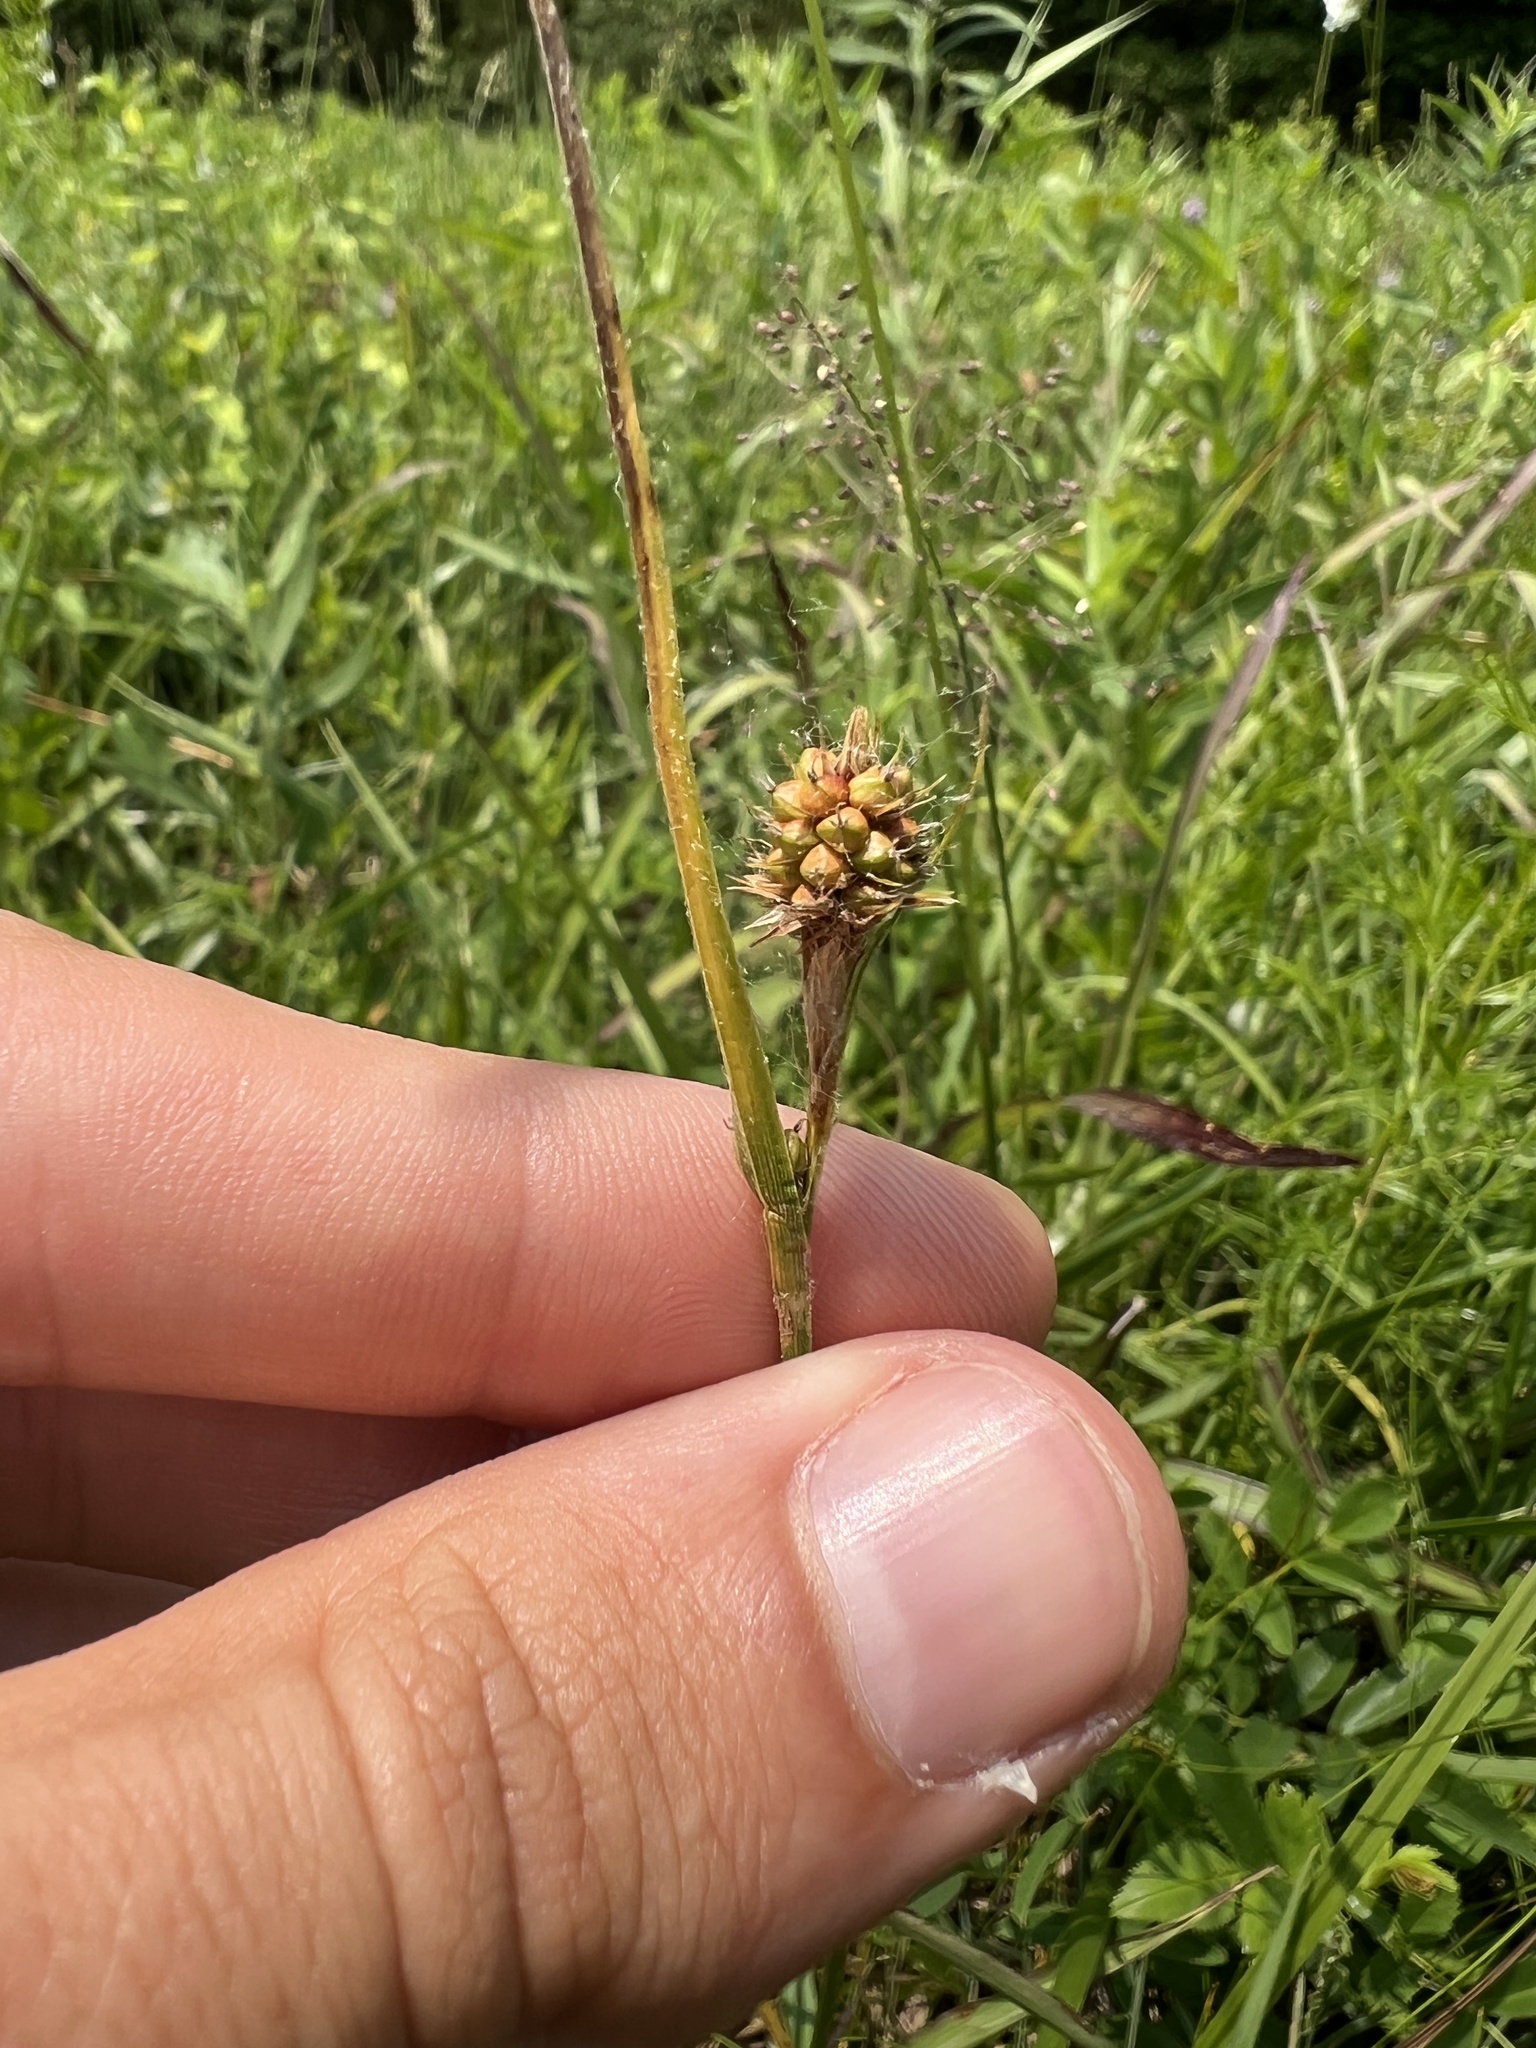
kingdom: Plantae
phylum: Tracheophyta
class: Liliopsida
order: Poales
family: Cyperaceae
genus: Carex
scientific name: Carex bushii
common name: Bush's sedge
